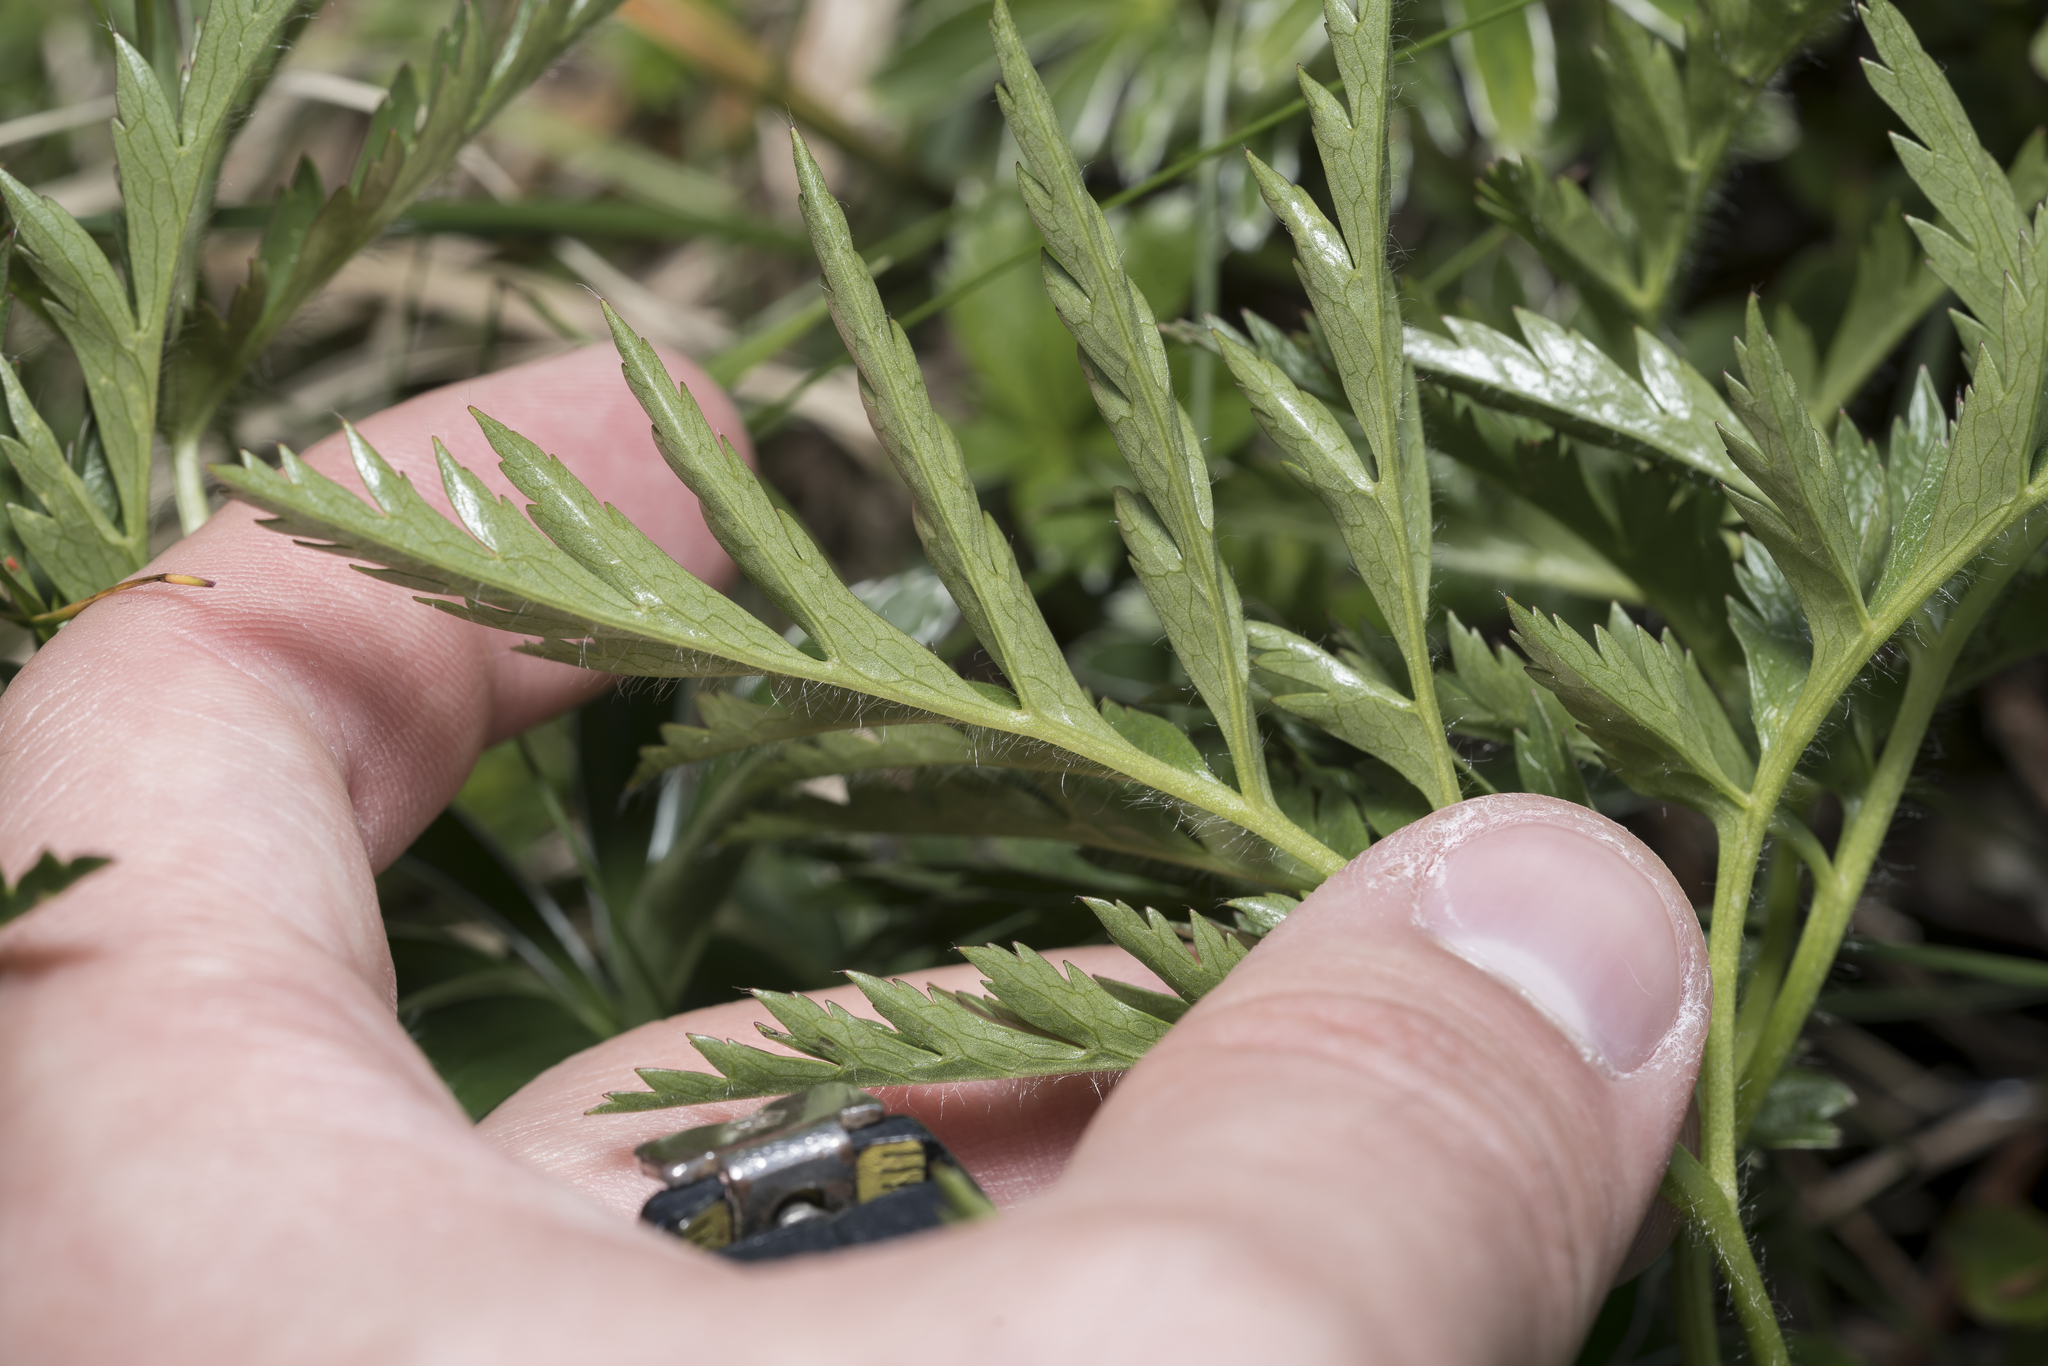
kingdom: Plantae
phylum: Tracheophyta
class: Magnoliopsida
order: Ranunculales
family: Ranunculaceae
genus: Pulsatilla
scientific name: Pulsatilla alpina
